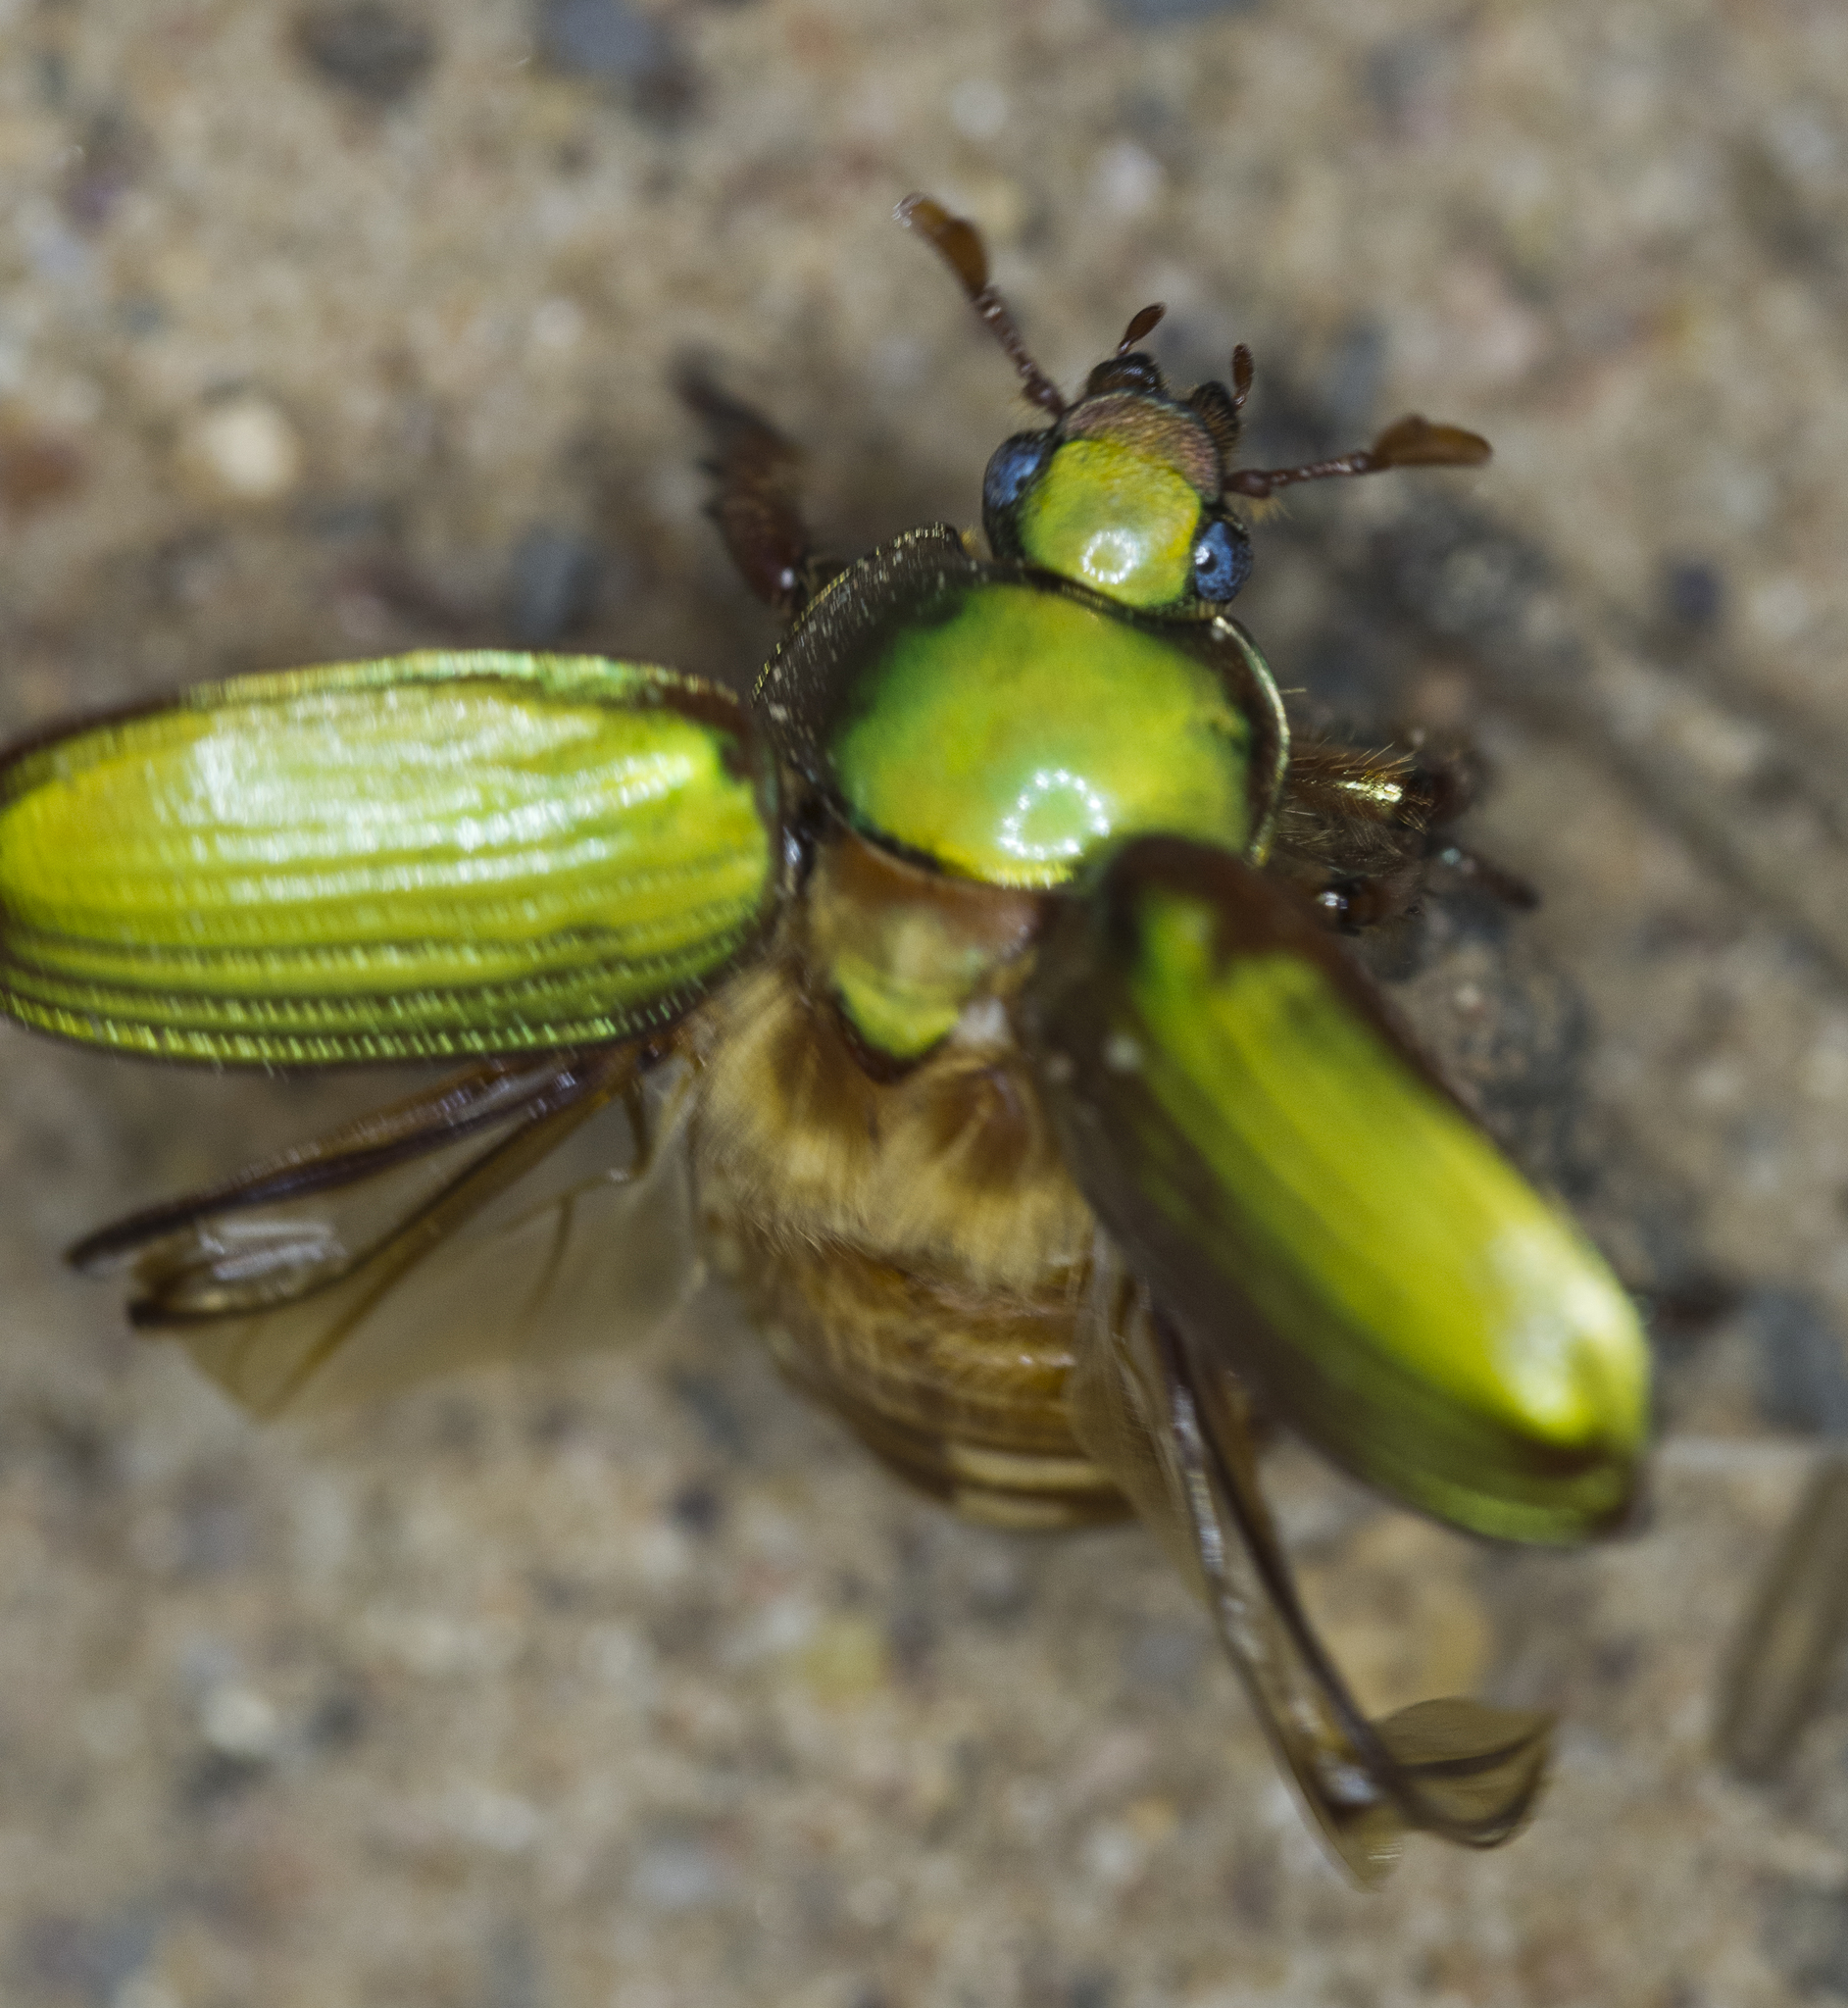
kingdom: Animalia
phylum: Arthropoda
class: Insecta
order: Coleoptera
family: Scarabaeidae
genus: Chrysina
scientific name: Chrysina lecontei
